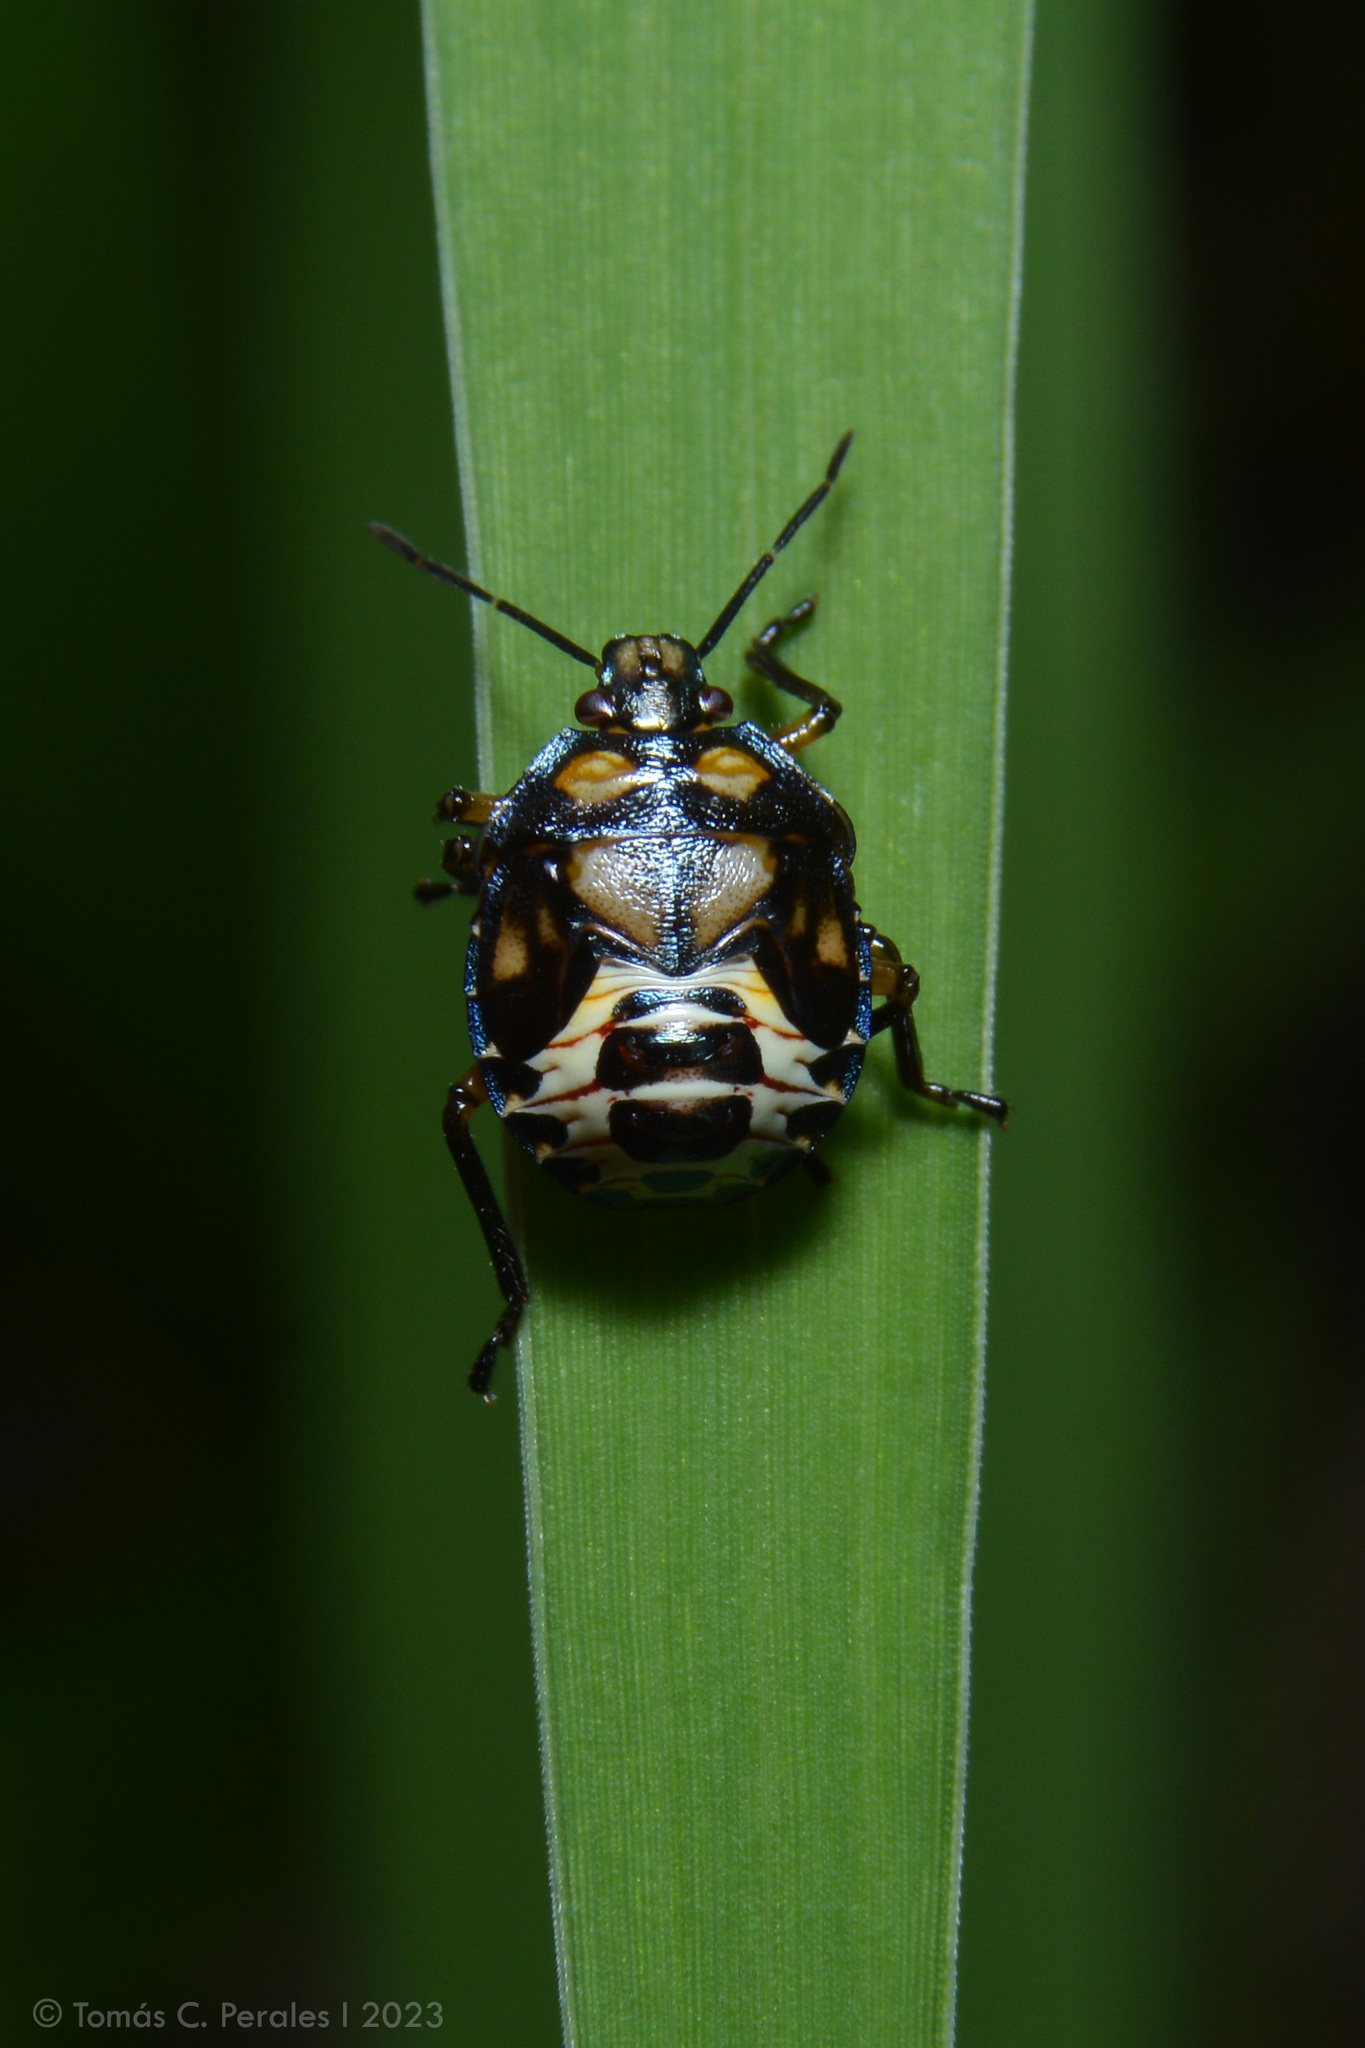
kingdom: Animalia
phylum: Arthropoda
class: Insecta
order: Hemiptera
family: Pentatomidae
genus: Podisus
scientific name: Podisus nigrispinus
